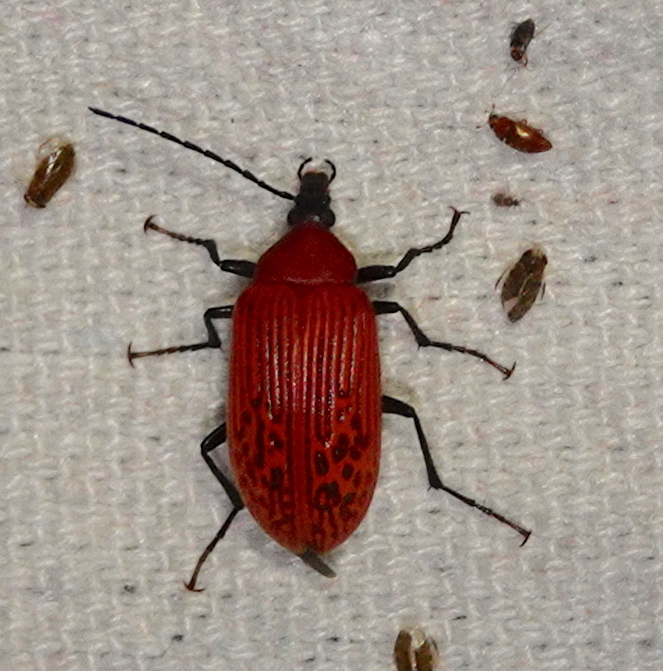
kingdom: Animalia
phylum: Arthropoda
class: Insecta
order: Coleoptera
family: Tenebrionidae
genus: Cistelomorpha
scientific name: Cistelomorpha
